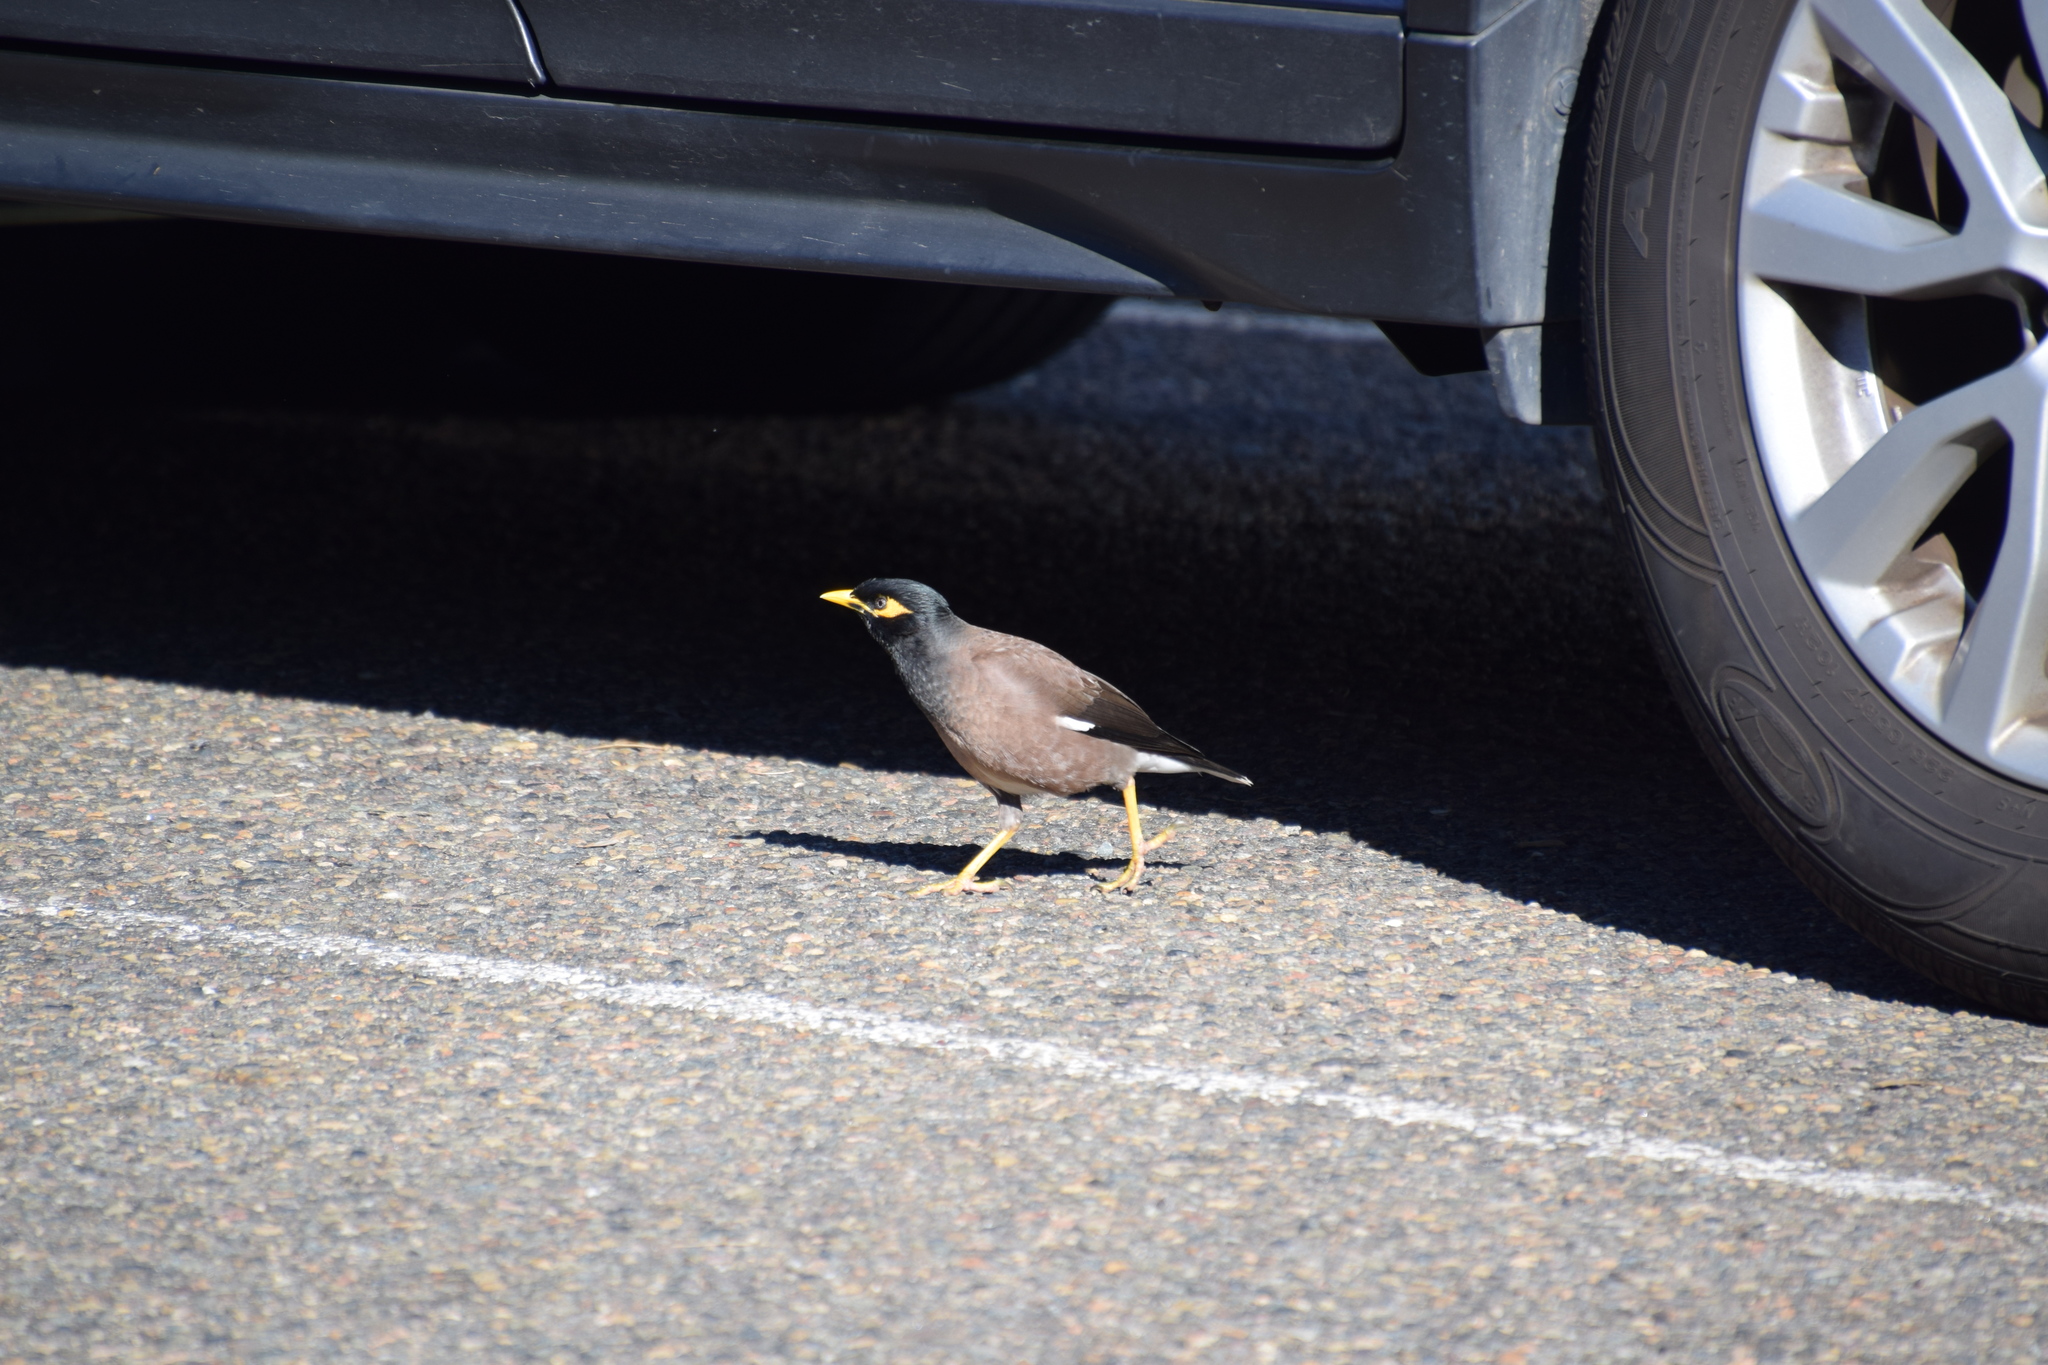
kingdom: Animalia
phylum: Chordata
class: Aves
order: Passeriformes
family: Sturnidae
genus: Acridotheres
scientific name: Acridotheres tristis
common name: Common myna
